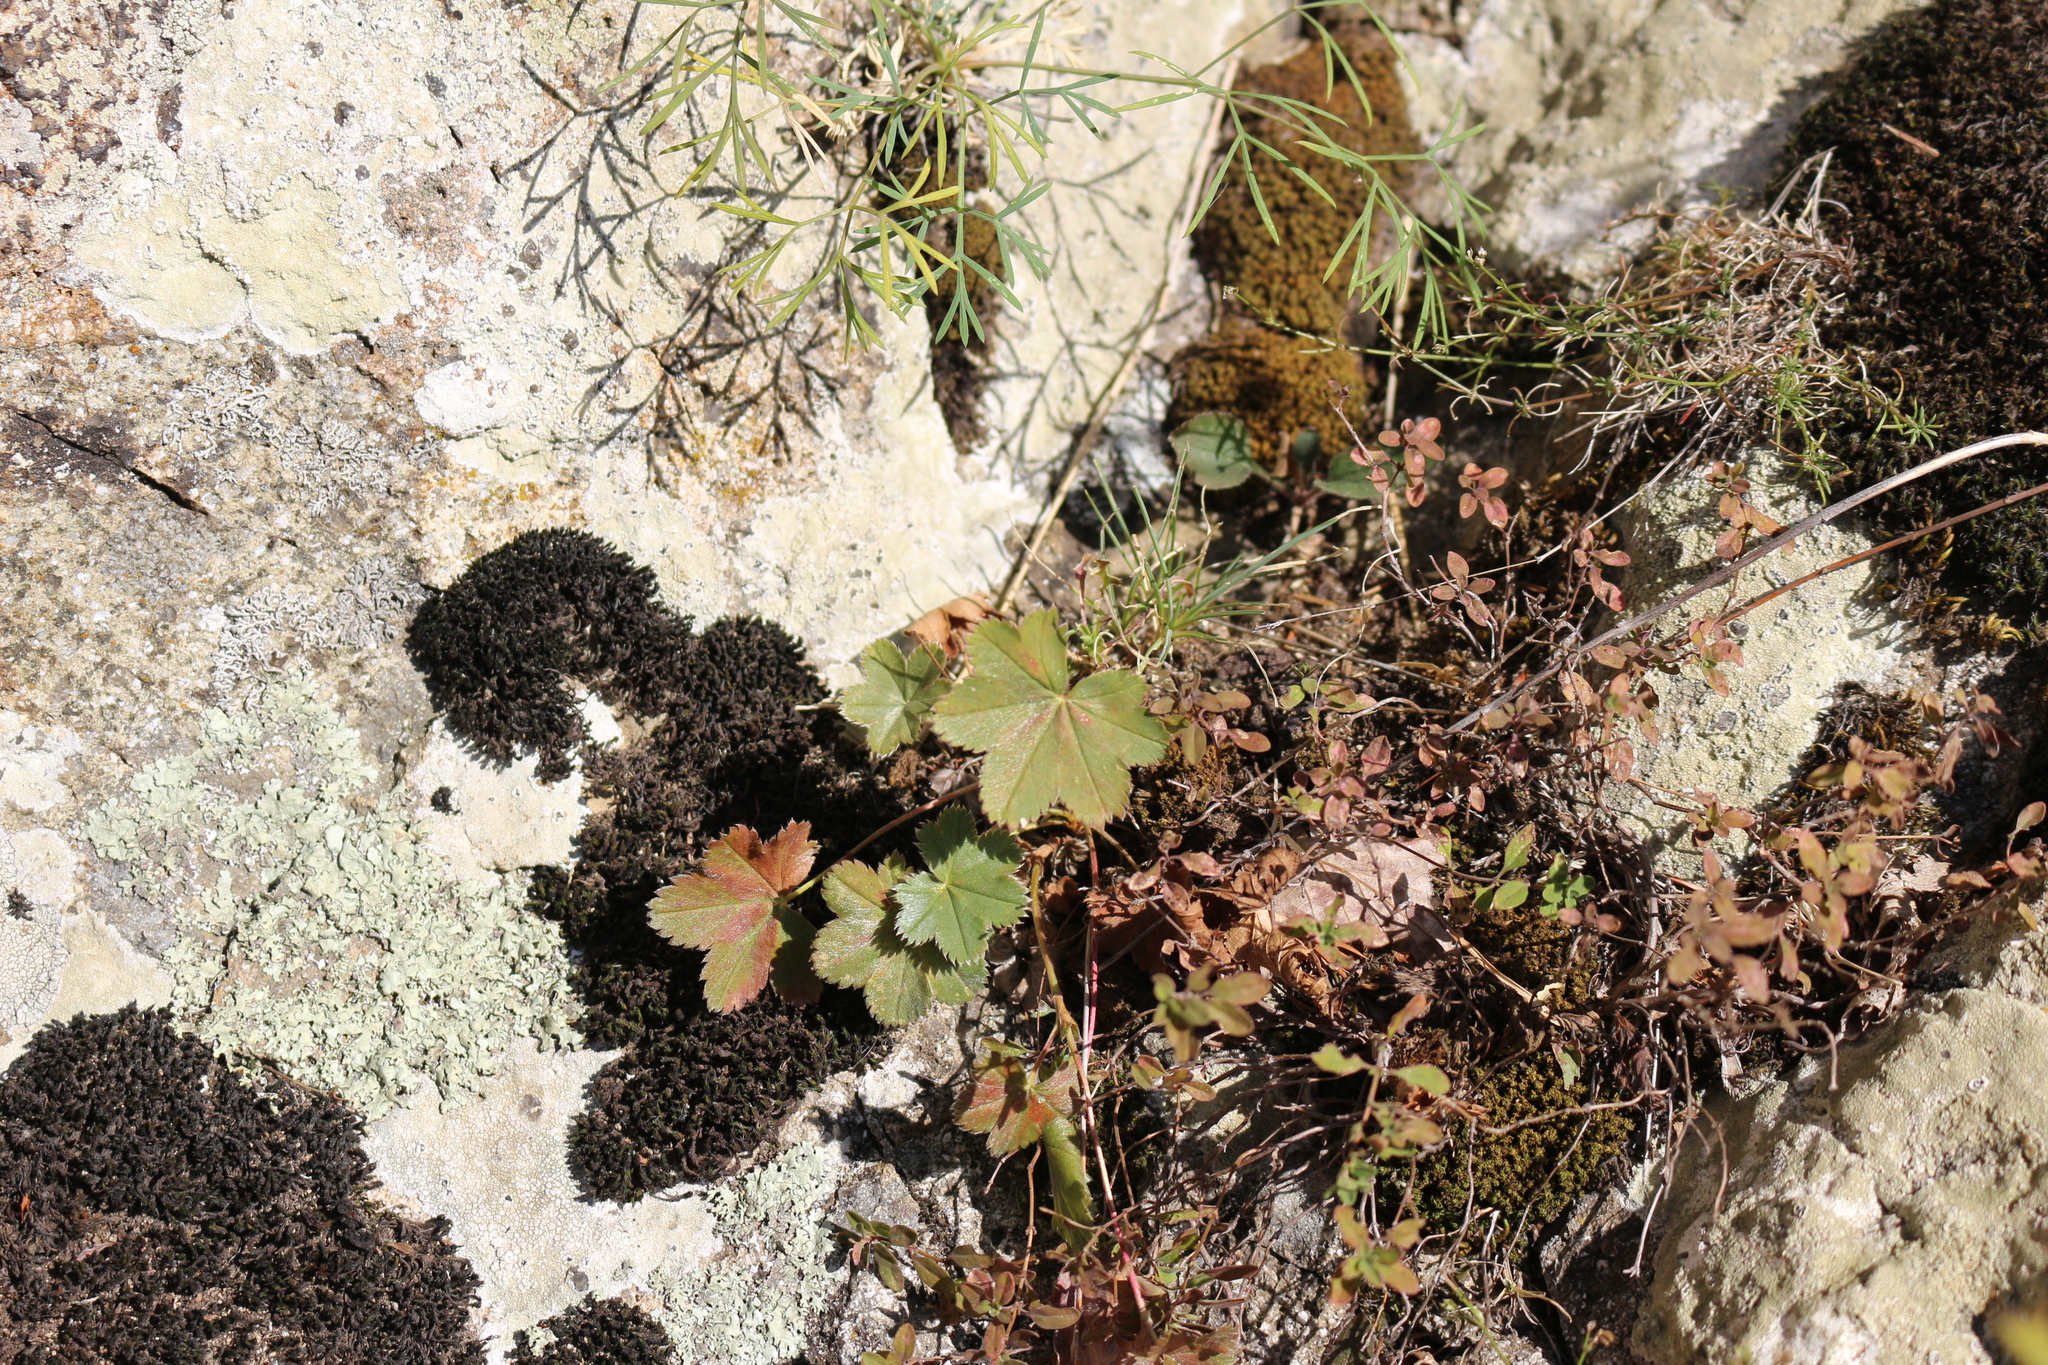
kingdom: Plantae
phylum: Tracheophyta
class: Magnoliopsida
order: Rosales
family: Rosaceae
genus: Alchemilla
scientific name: Alchemilla
